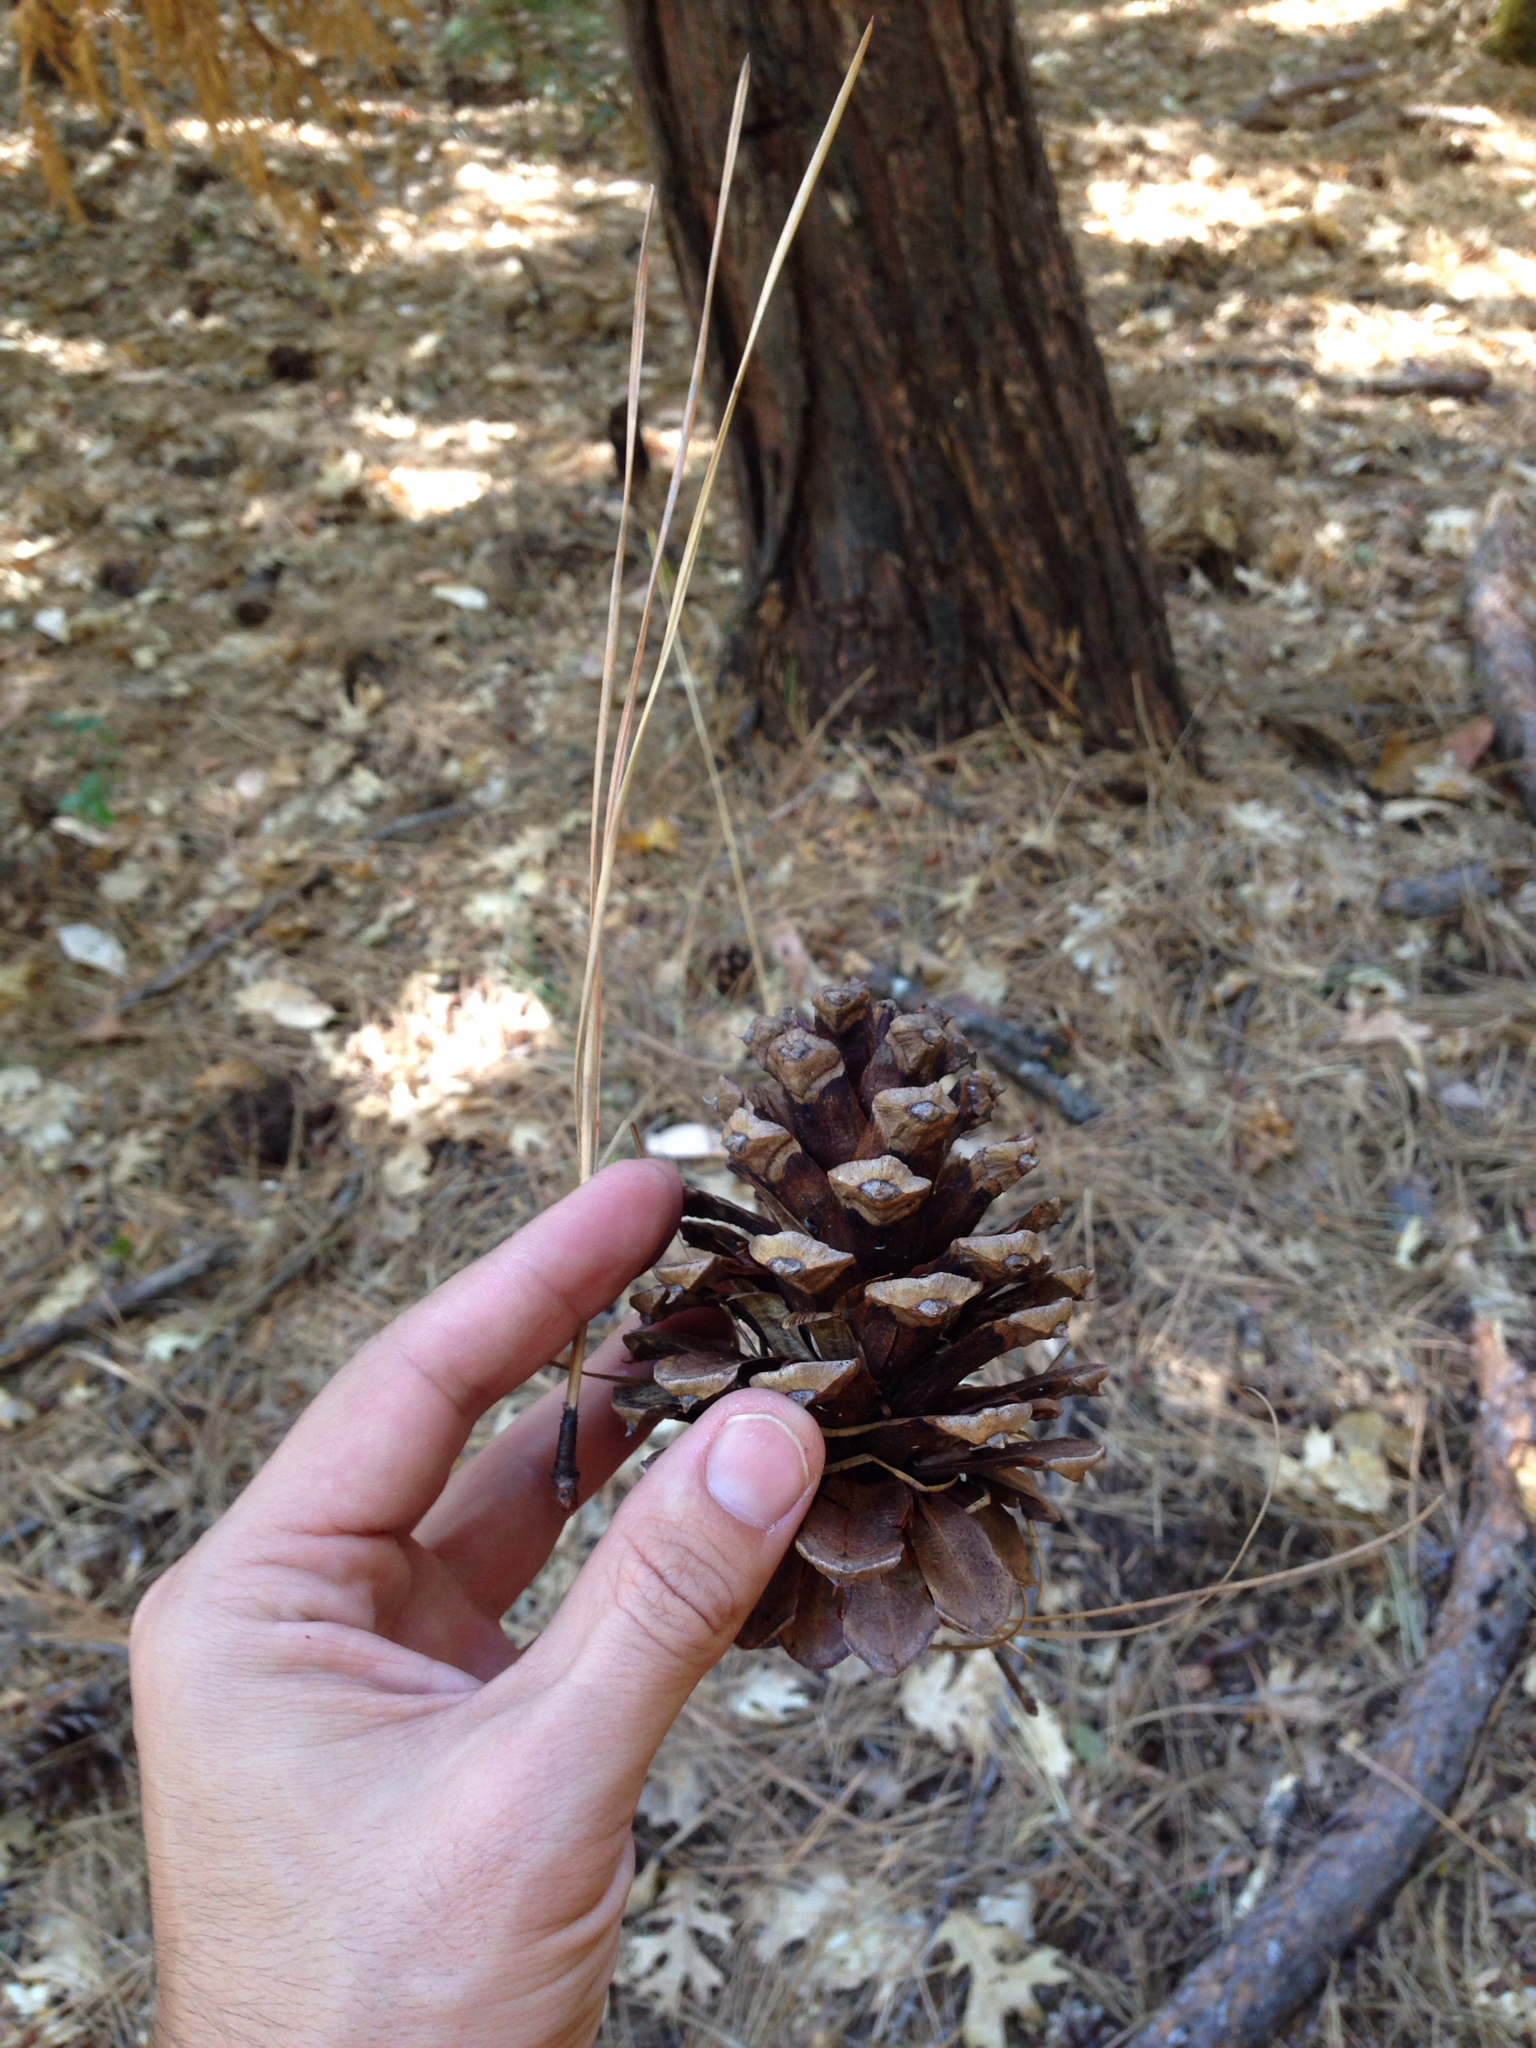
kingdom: Plantae
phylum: Tracheophyta
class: Pinopsida
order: Pinales
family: Pinaceae
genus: Pinus
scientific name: Pinus ponderosa
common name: Western yellow-pine
